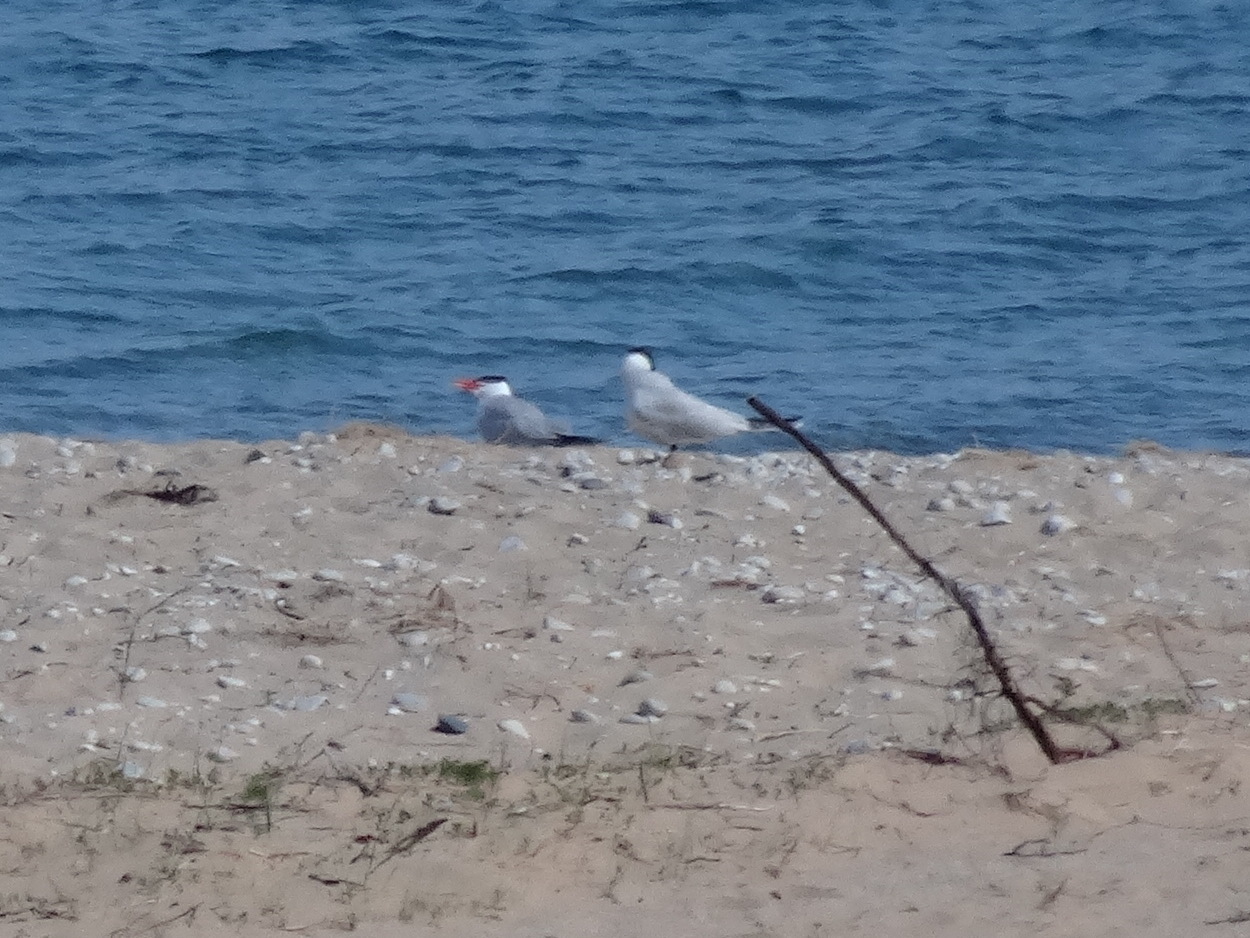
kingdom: Animalia
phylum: Chordata
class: Aves
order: Charadriiformes
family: Laridae
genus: Hydroprogne
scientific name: Hydroprogne caspia
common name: Caspian tern
